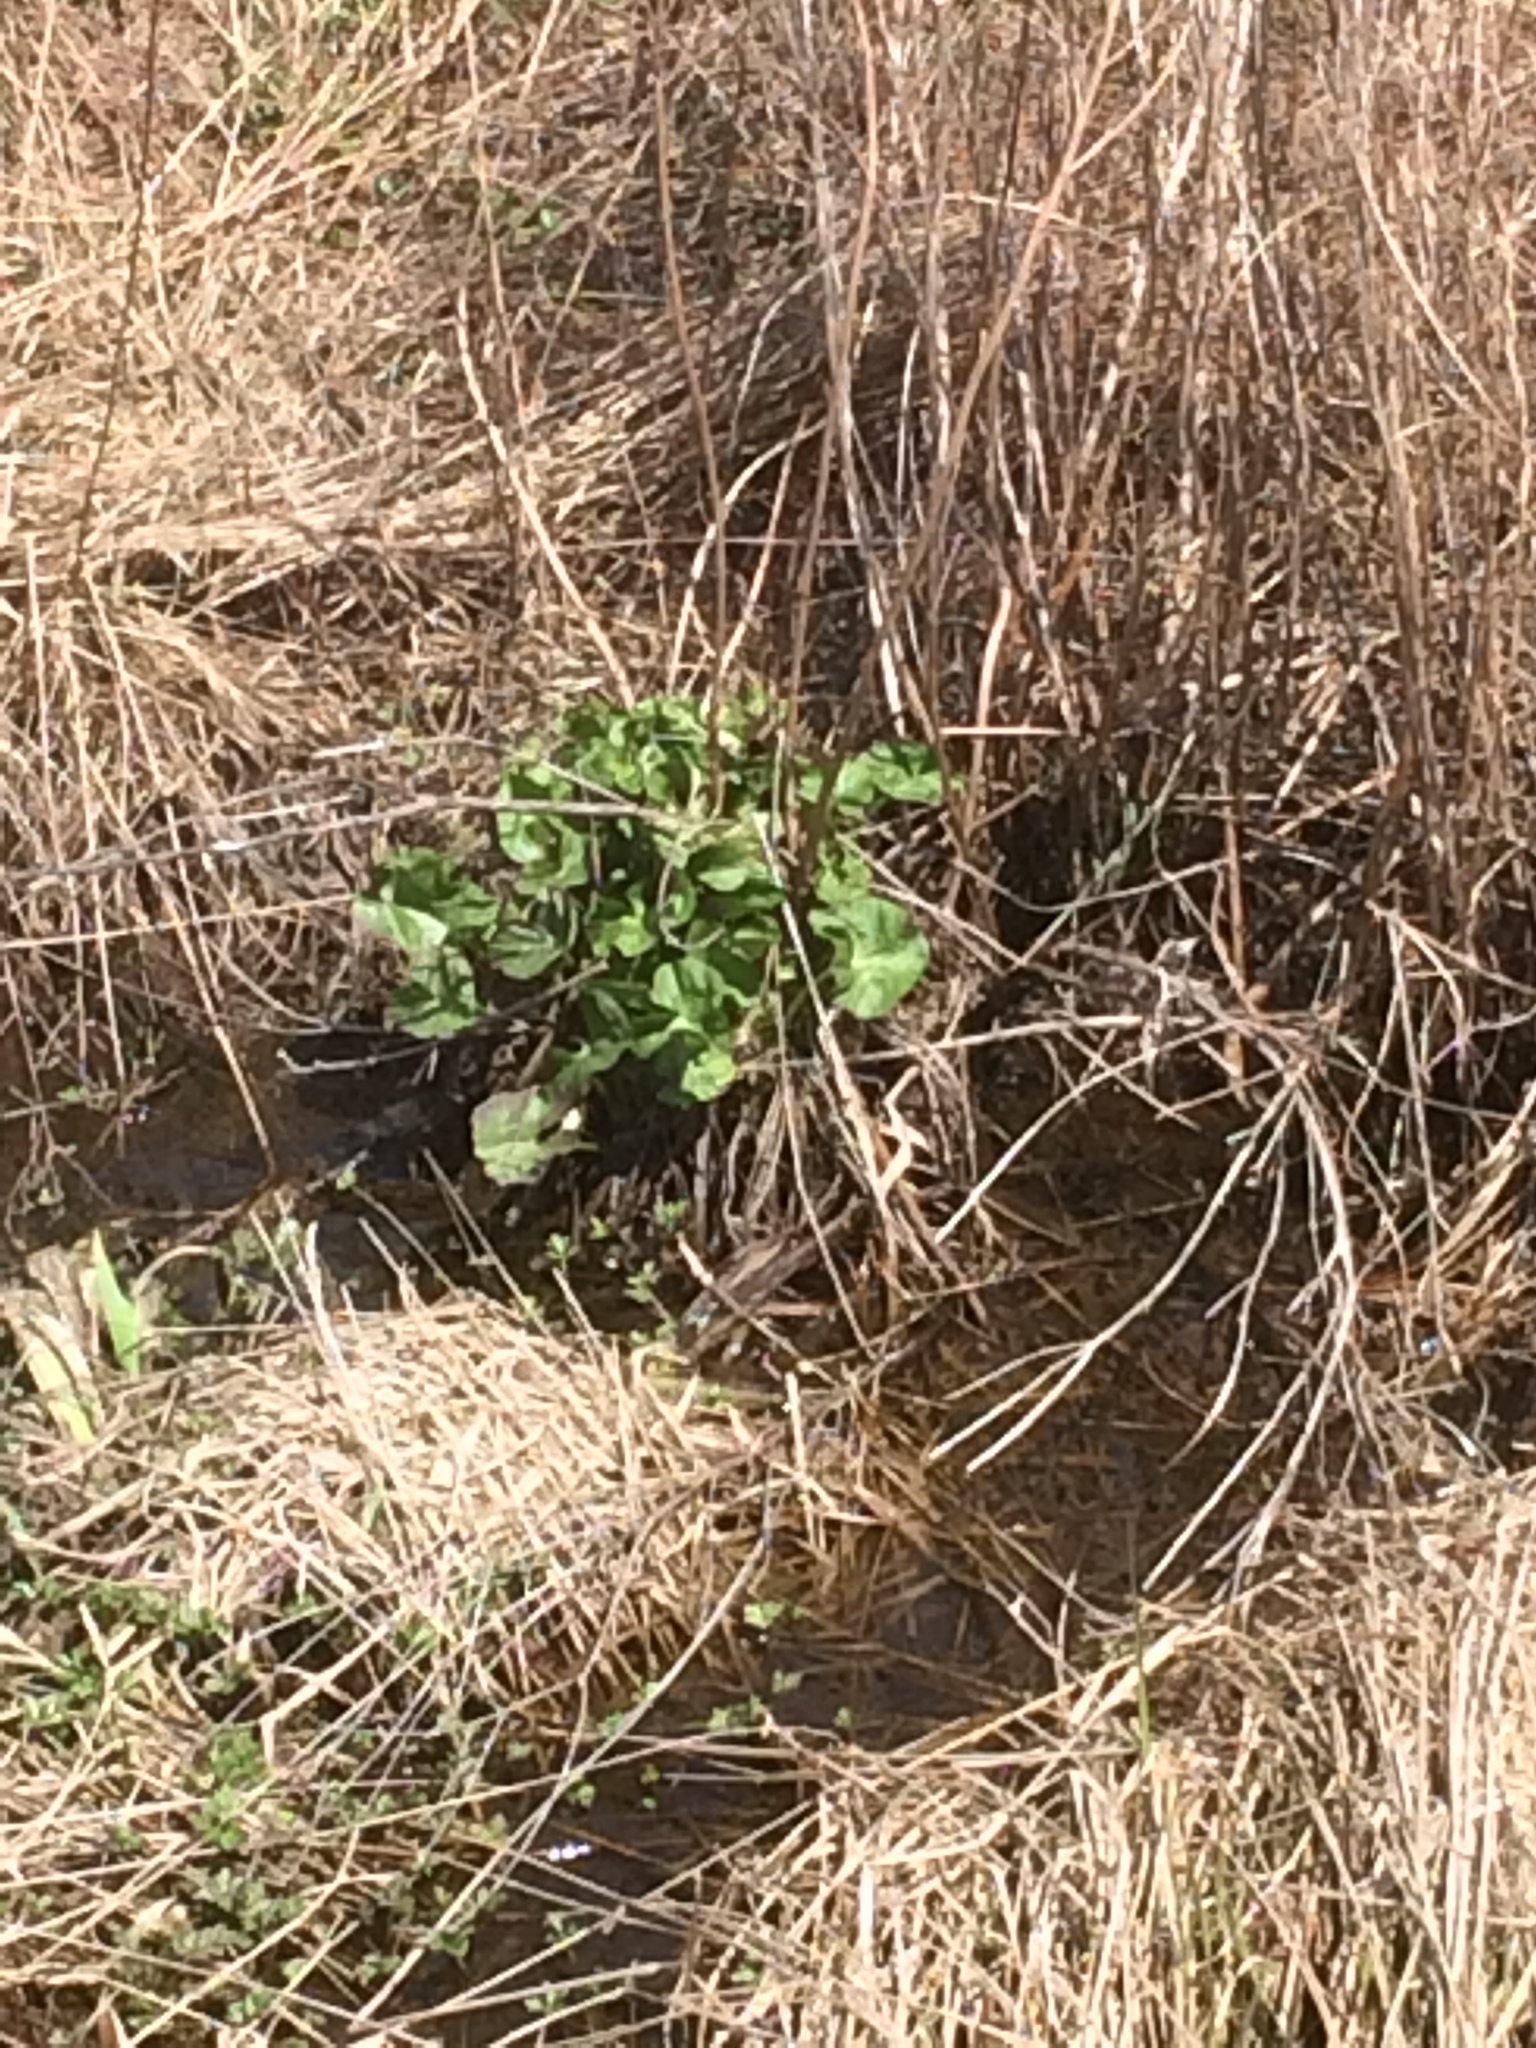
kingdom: Plantae
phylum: Tracheophyta
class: Magnoliopsida
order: Ranunculales
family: Ranunculaceae
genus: Caltha
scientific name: Caltha palustris
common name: Marsh marigold
